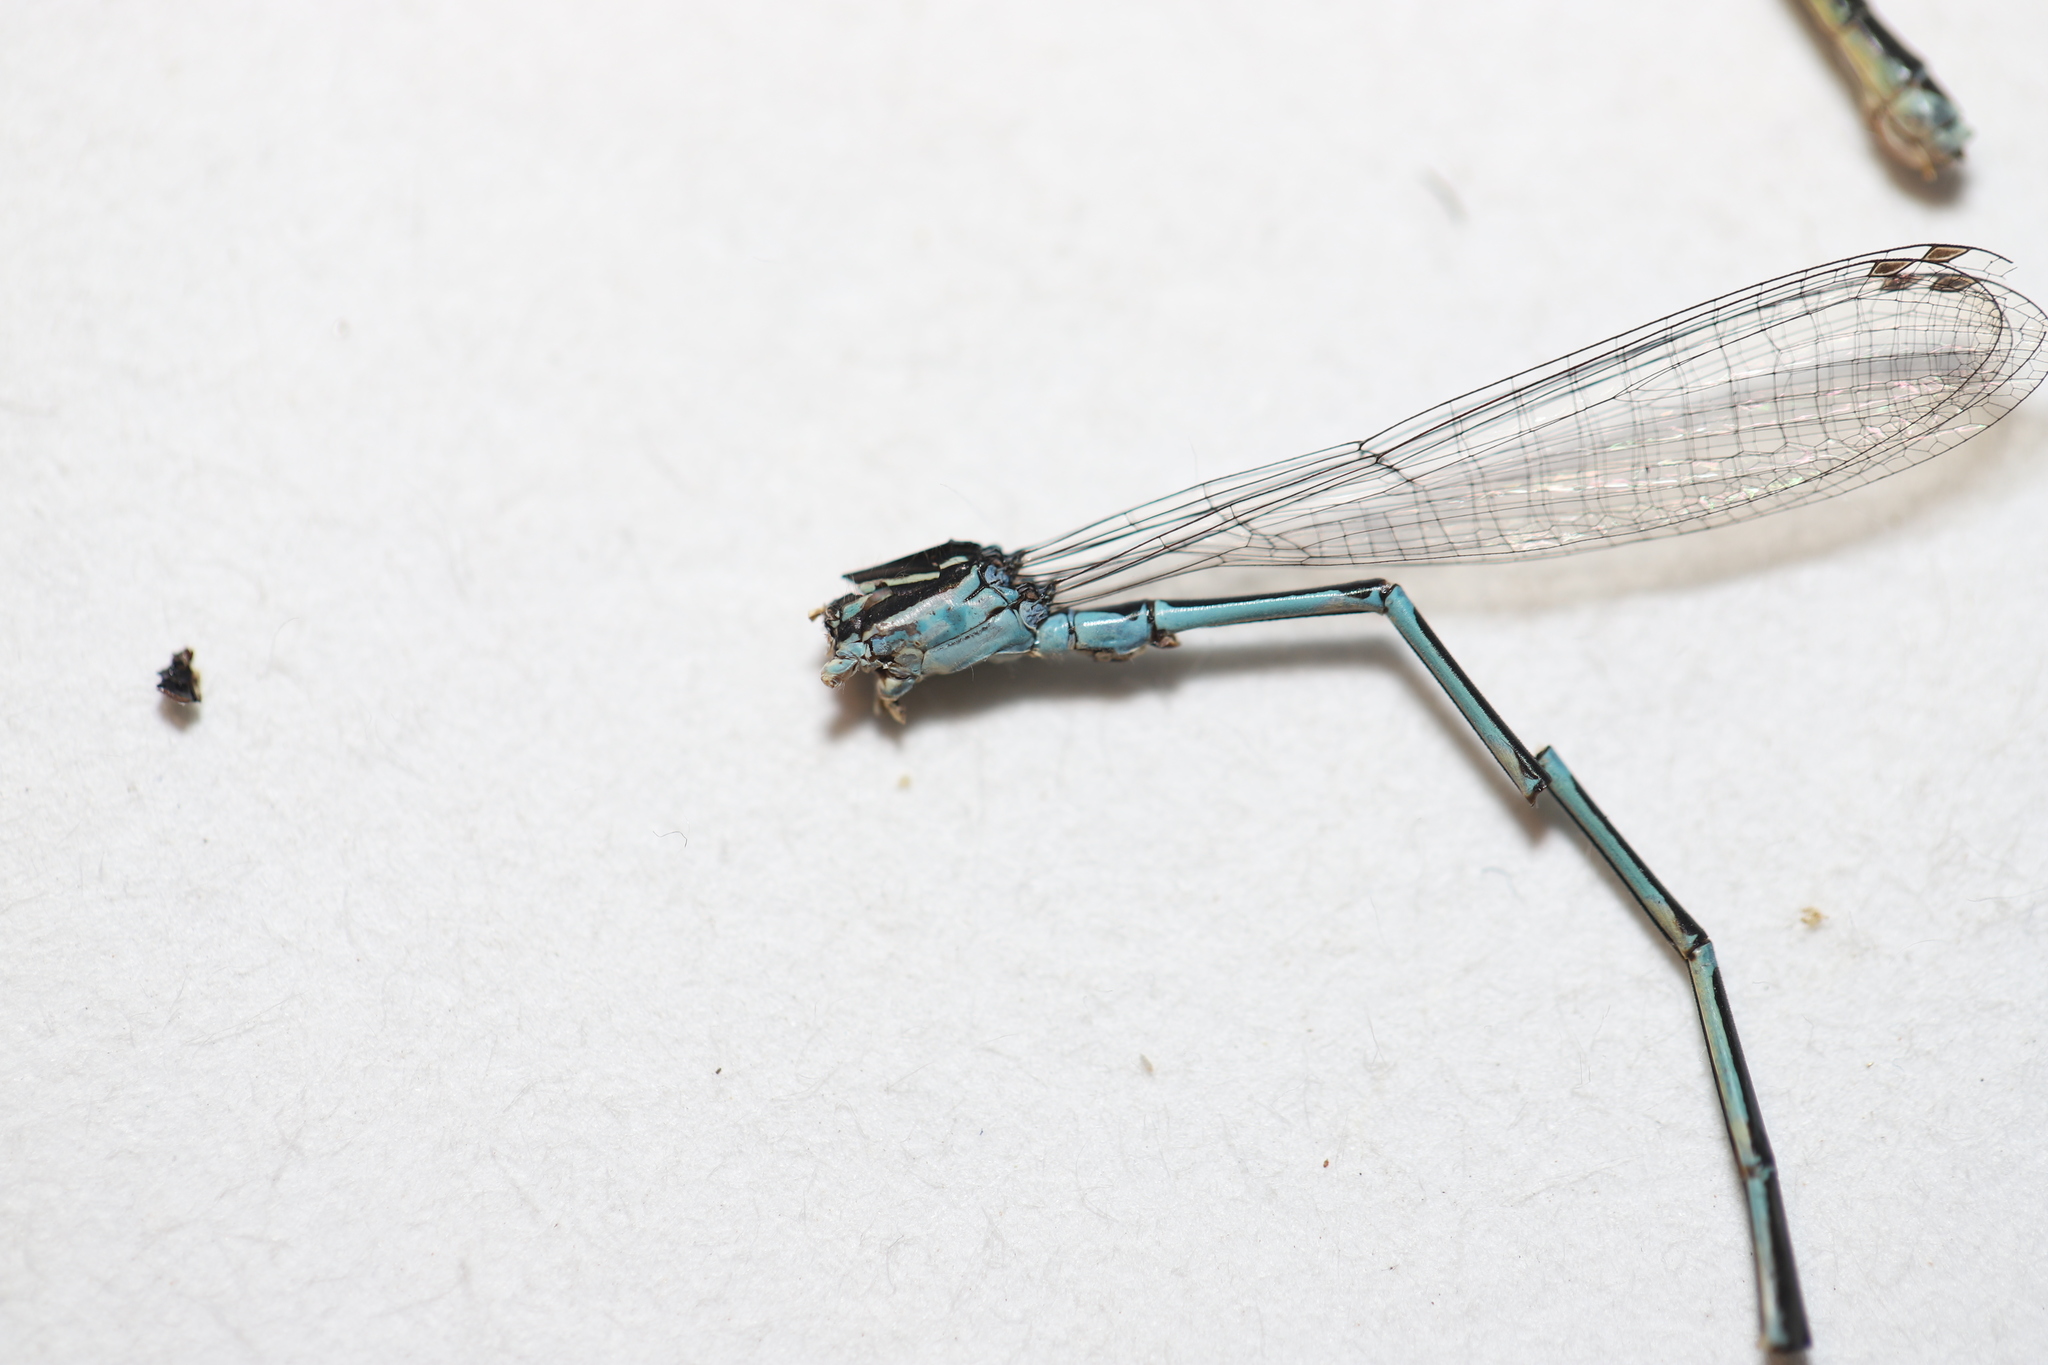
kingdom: Animalia
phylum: Arthropoda
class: Insecta
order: Odonata
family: Coenagrionidae
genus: Enallagma
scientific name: Enallagma exsulans
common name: Stream bluet
